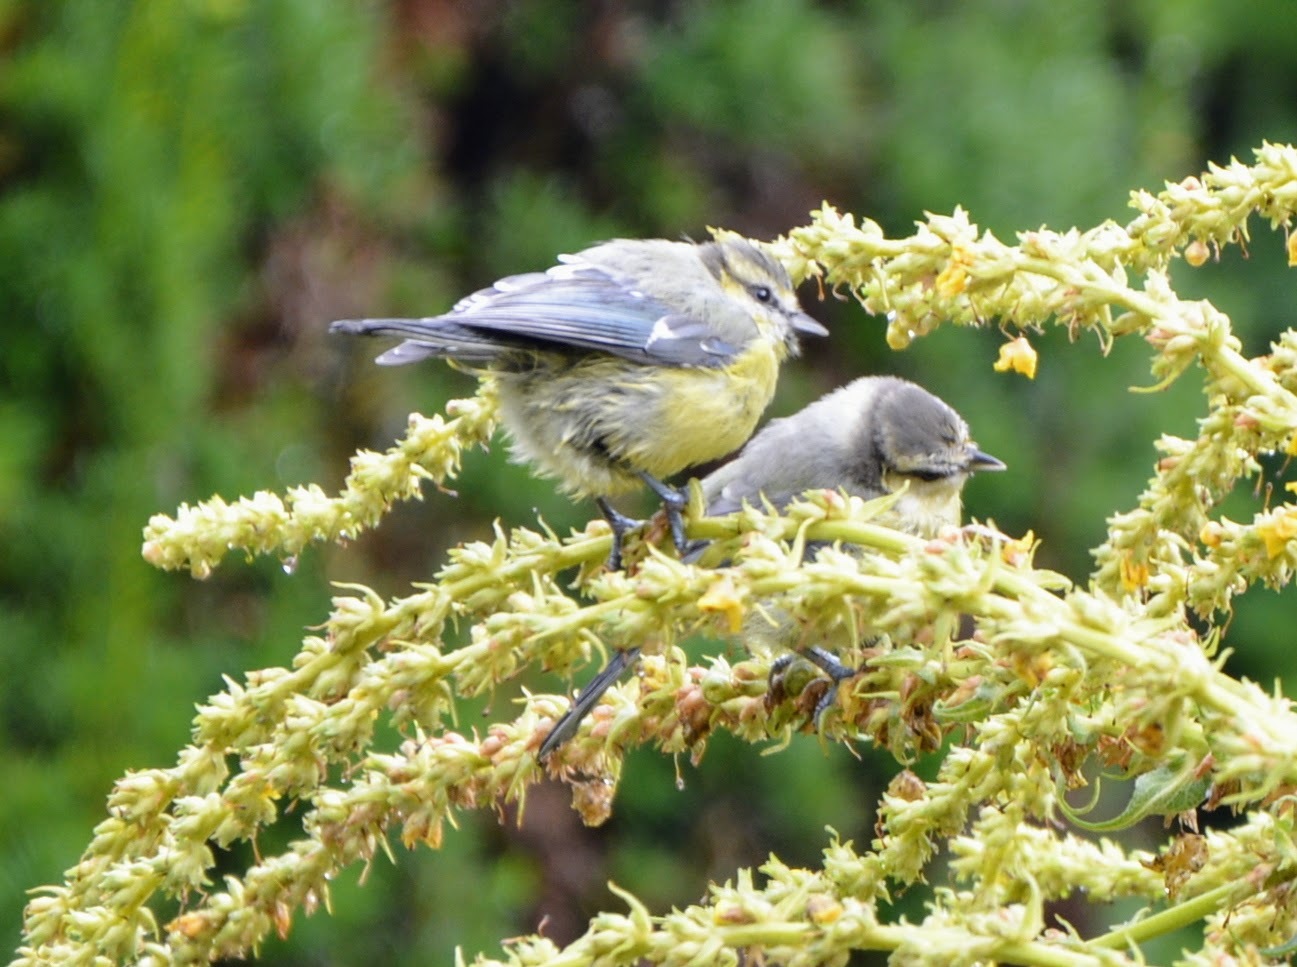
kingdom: Animalia
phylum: Chordata
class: Aves
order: Passeriformes
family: Paridae
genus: Cyanistes
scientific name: Cyanistes caeruleus
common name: Eurasian blue tit
